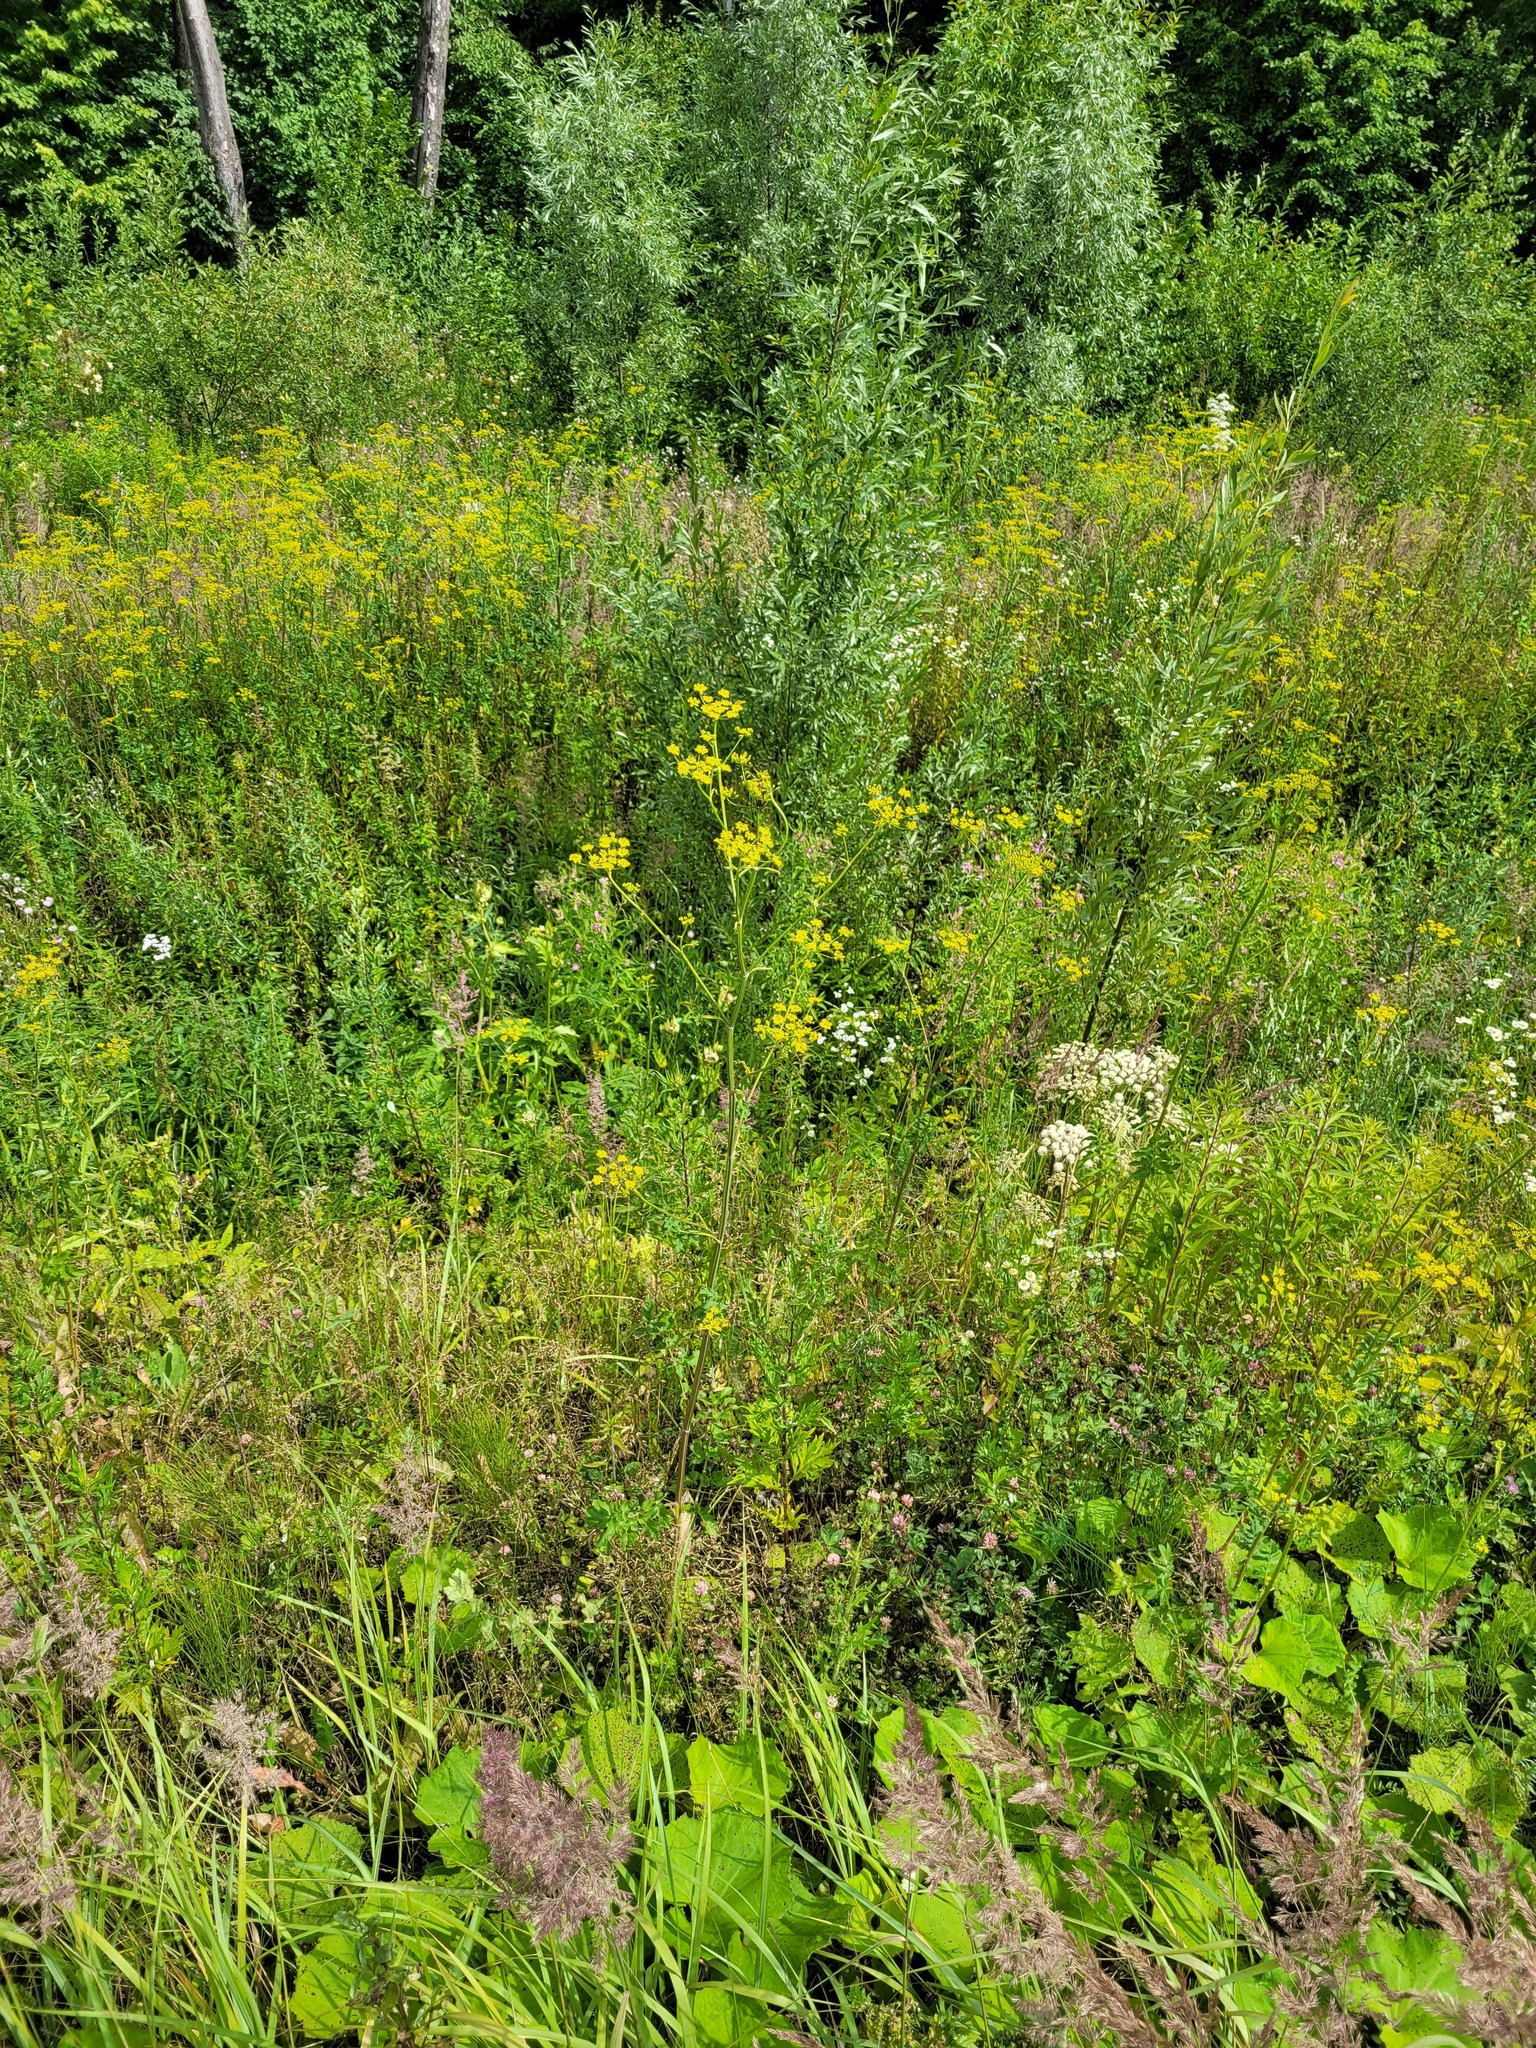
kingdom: Plantae
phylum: Tracheophyta
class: Magnoliopsida
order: Apiales
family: Apiaceae
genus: Pastinaca
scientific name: Pastinaca sativa
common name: Wild parsnip
